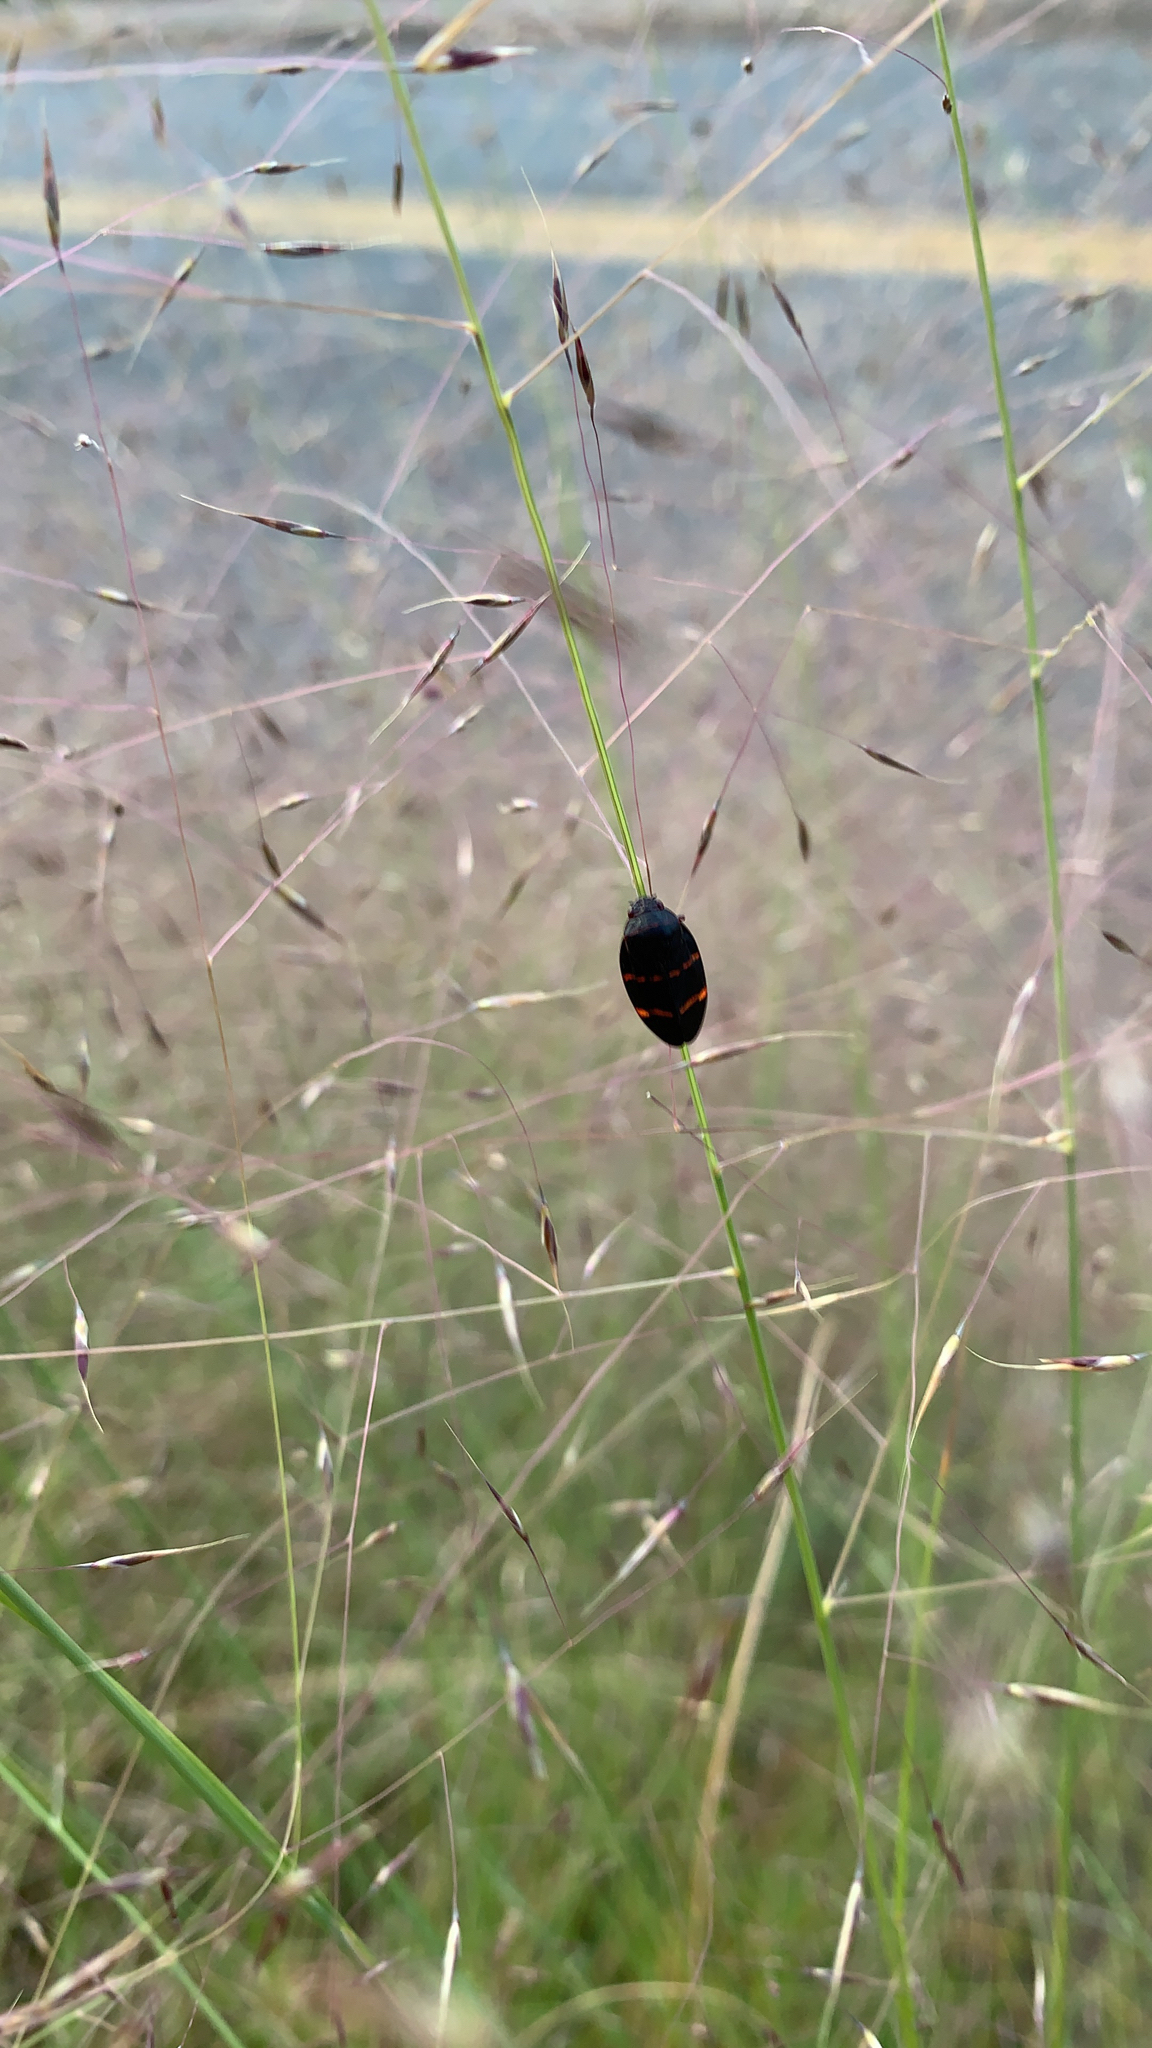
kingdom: Animalia
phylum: Arthropoda
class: Insecta
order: Hemiptera
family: Cercopidae
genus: Prosapia
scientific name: Prosapia bicincta
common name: Twolined spittlebug
